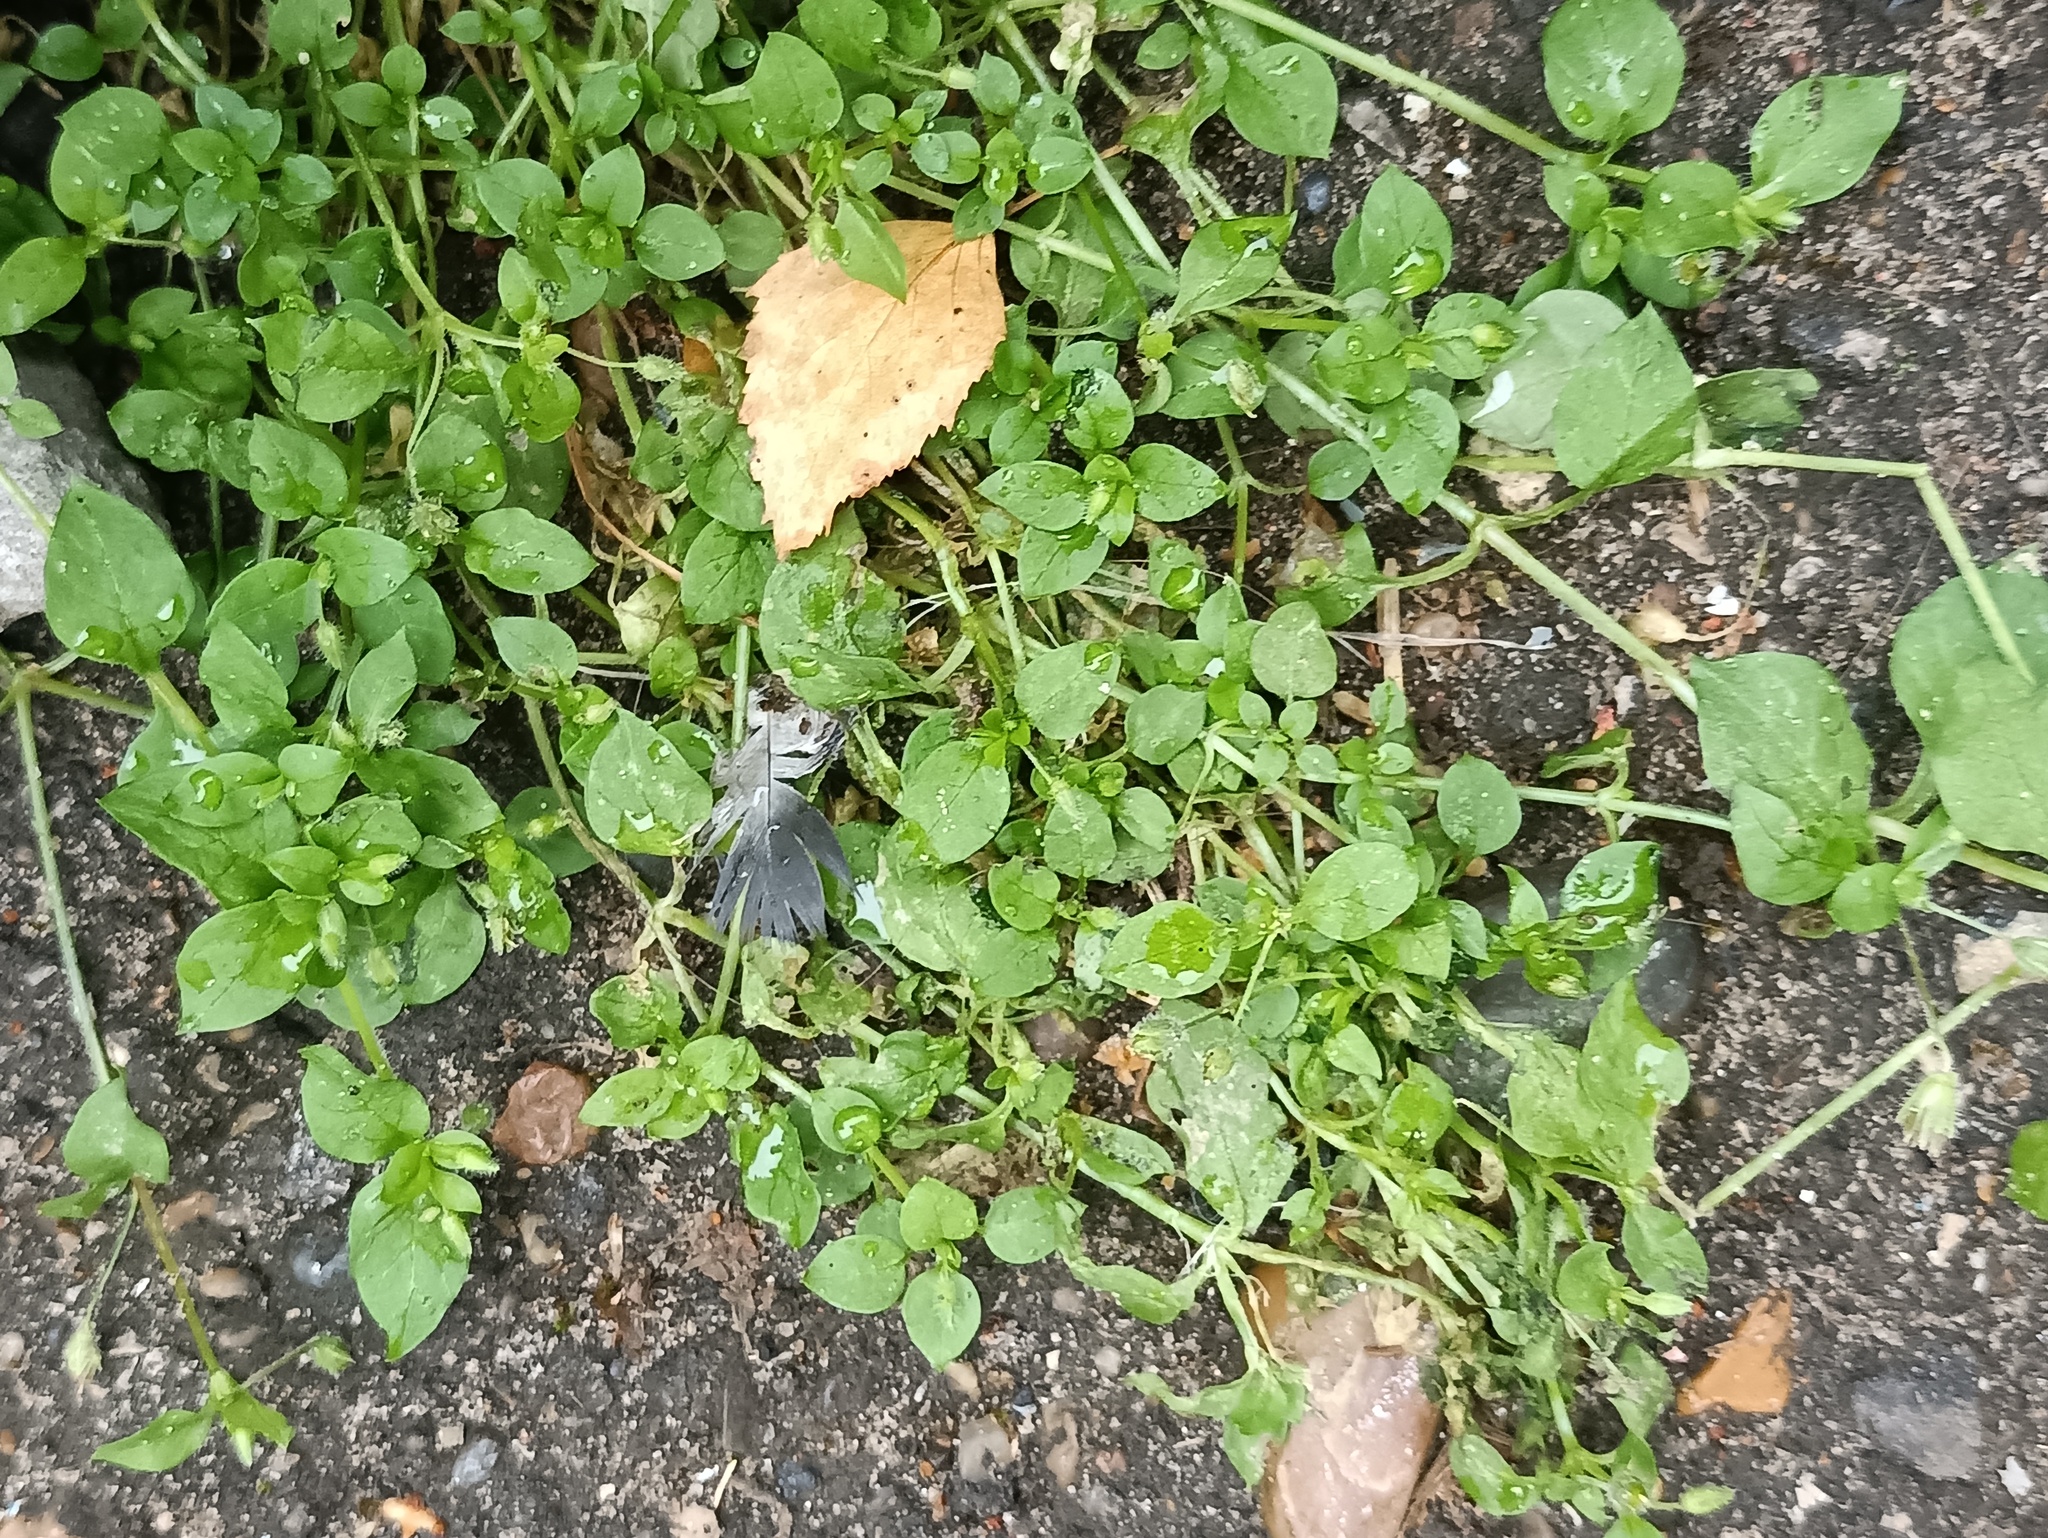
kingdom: Plantae
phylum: Tracheophyta
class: Magnoliopsida
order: Caryophyllales
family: Caryophyllaceae
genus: Stellaria
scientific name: Stellaria media
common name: Common chickweed
